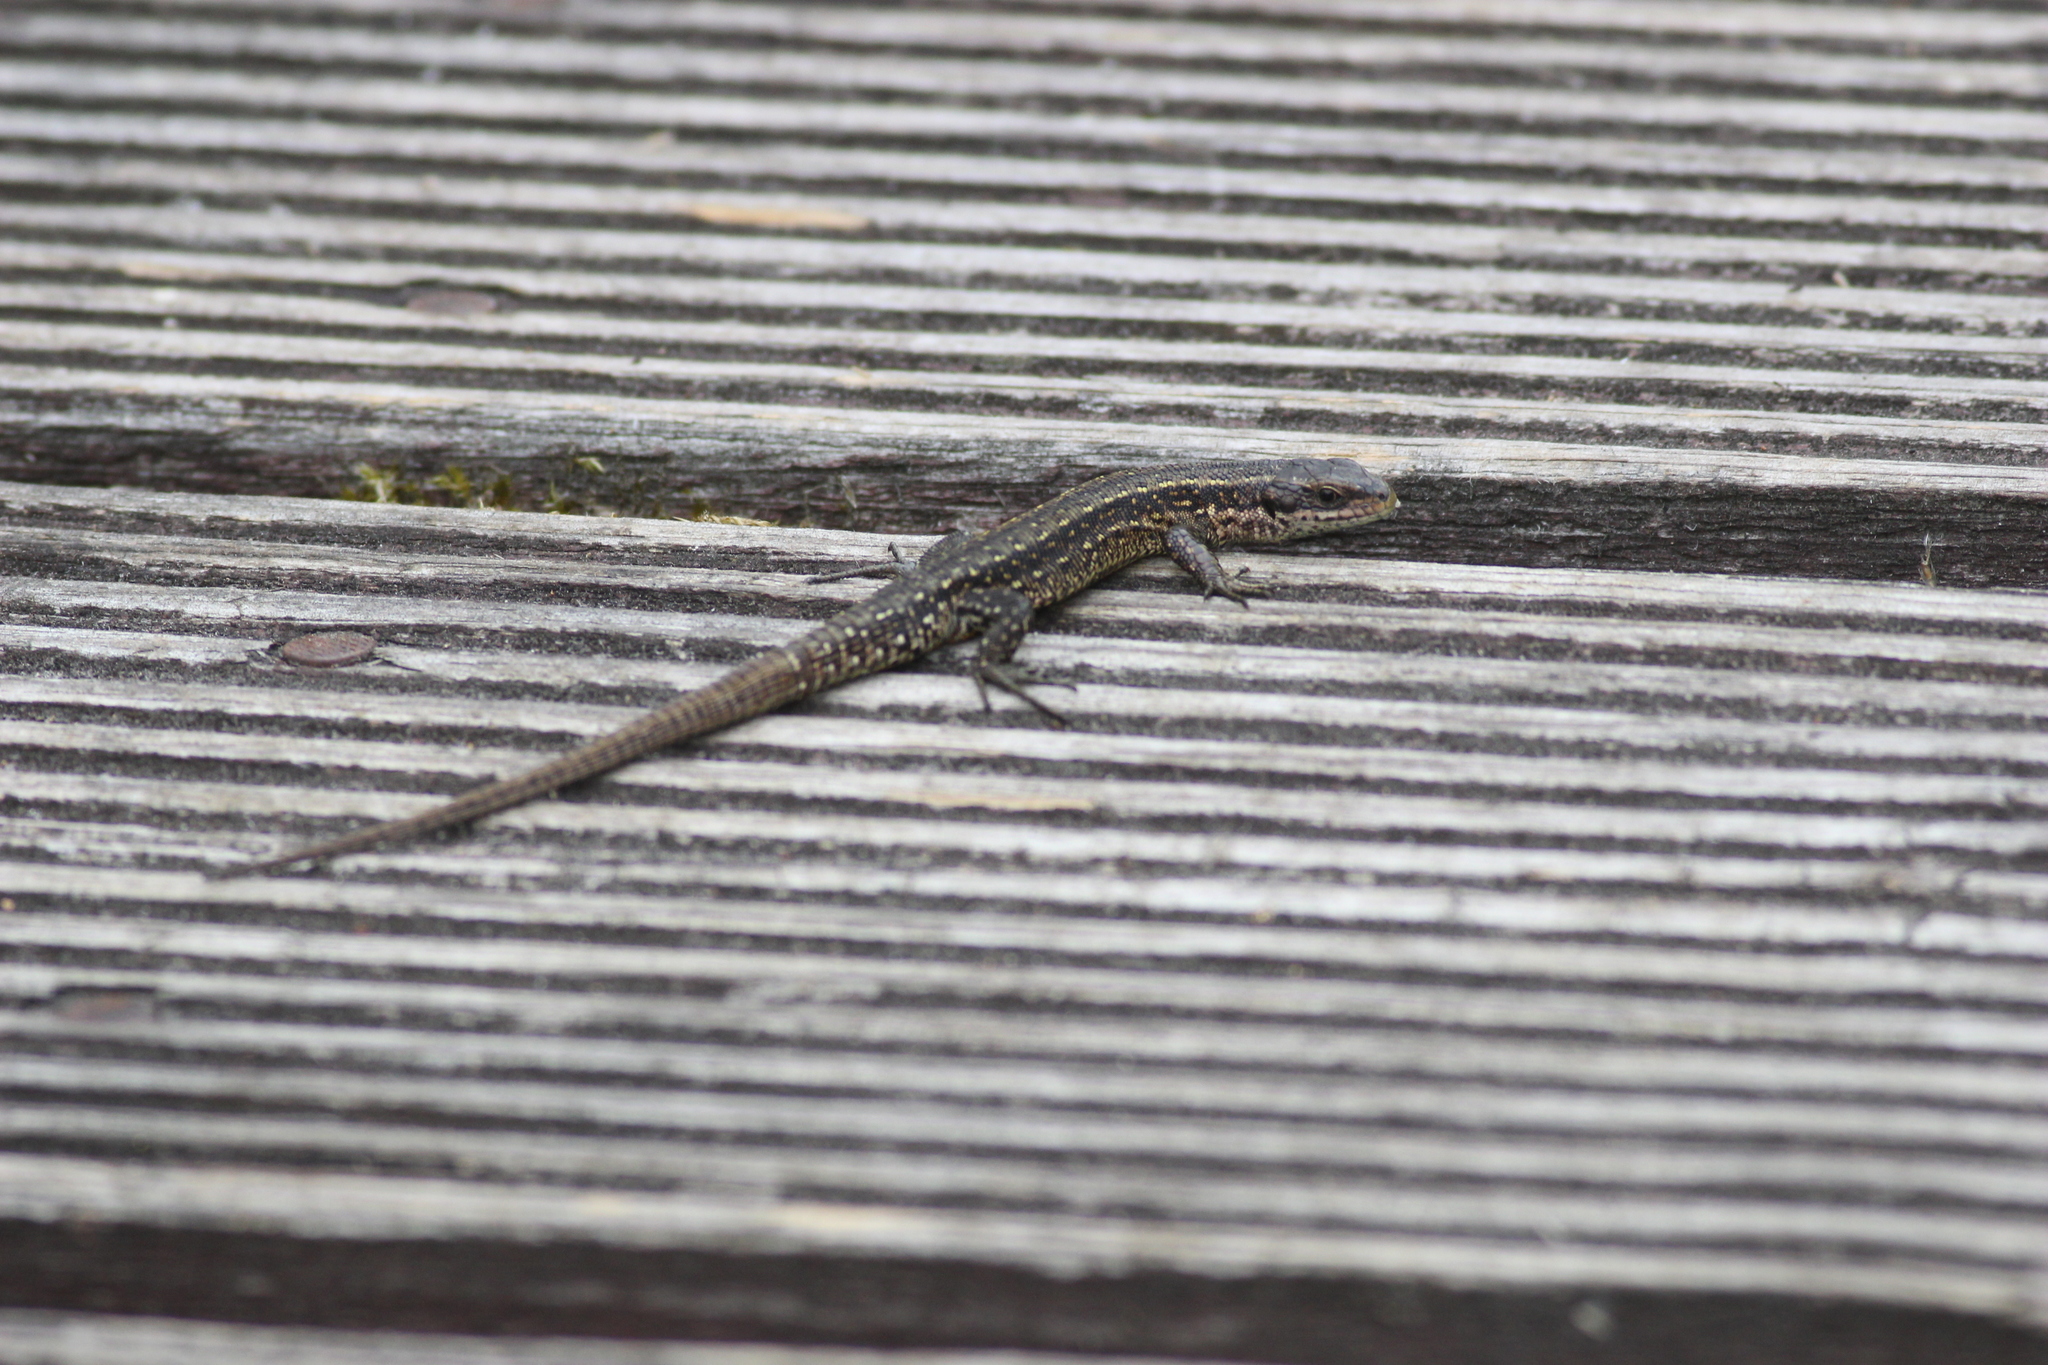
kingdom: Animalia
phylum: Chordata
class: Squamata
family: Lacertidae
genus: Zootoca
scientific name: Zootoca vivipara
